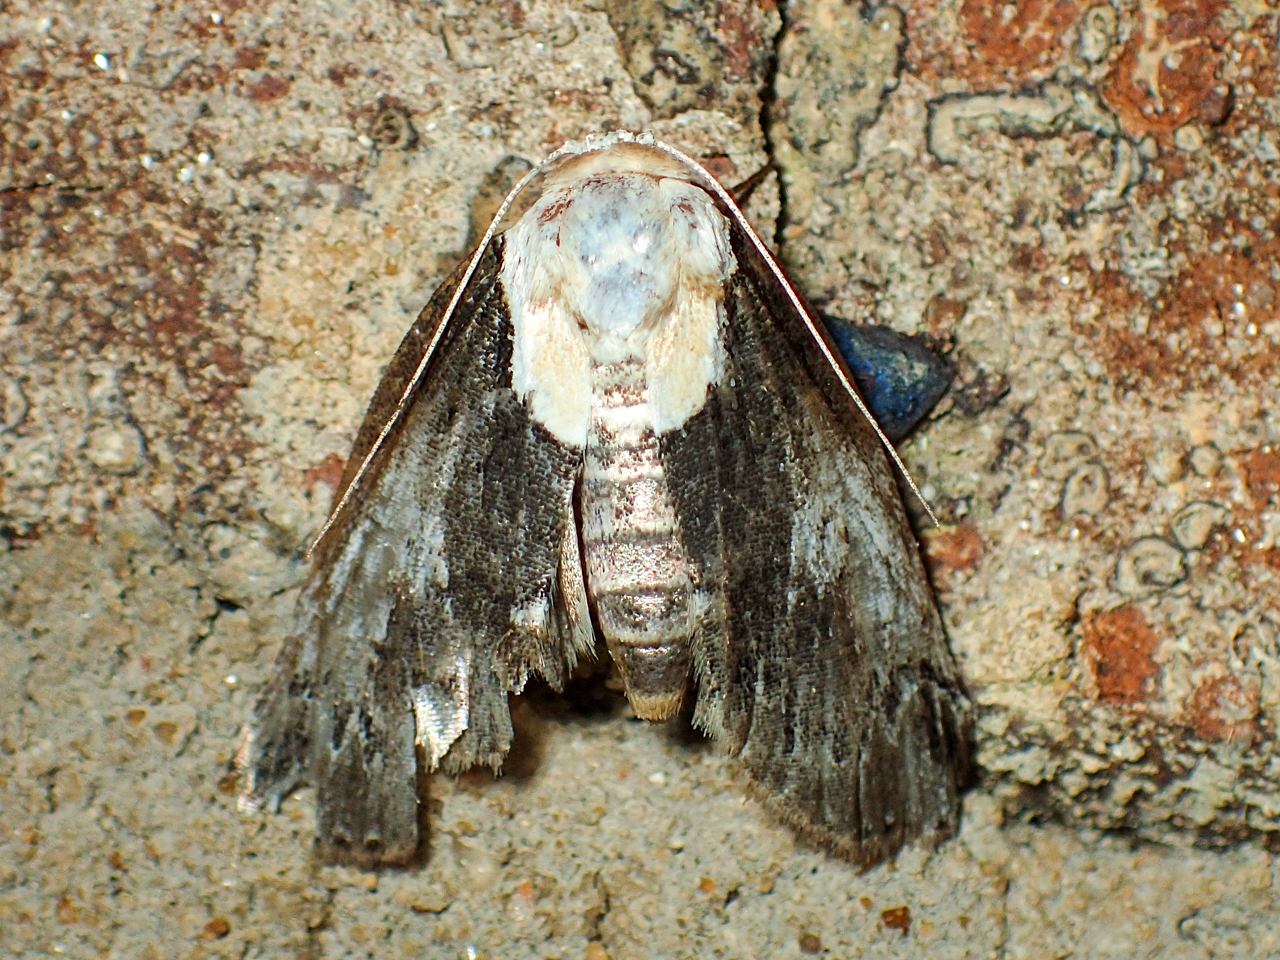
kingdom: Animalia
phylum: Arthropoda
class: Insecta
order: Lepidoptera
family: Nolidae
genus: Baileya
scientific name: Baileya ophthalmica
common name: Eyed baileya moth
